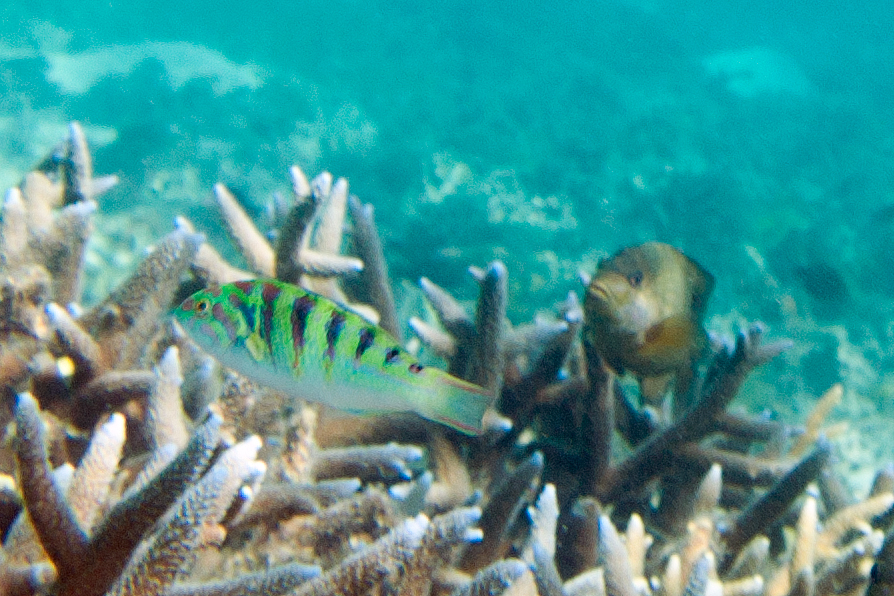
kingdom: Animalia
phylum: Chordata
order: Perciformes
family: Labridae
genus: Thalassoma
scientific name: Thalassoma hardwicke
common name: Sixbar wrasse
